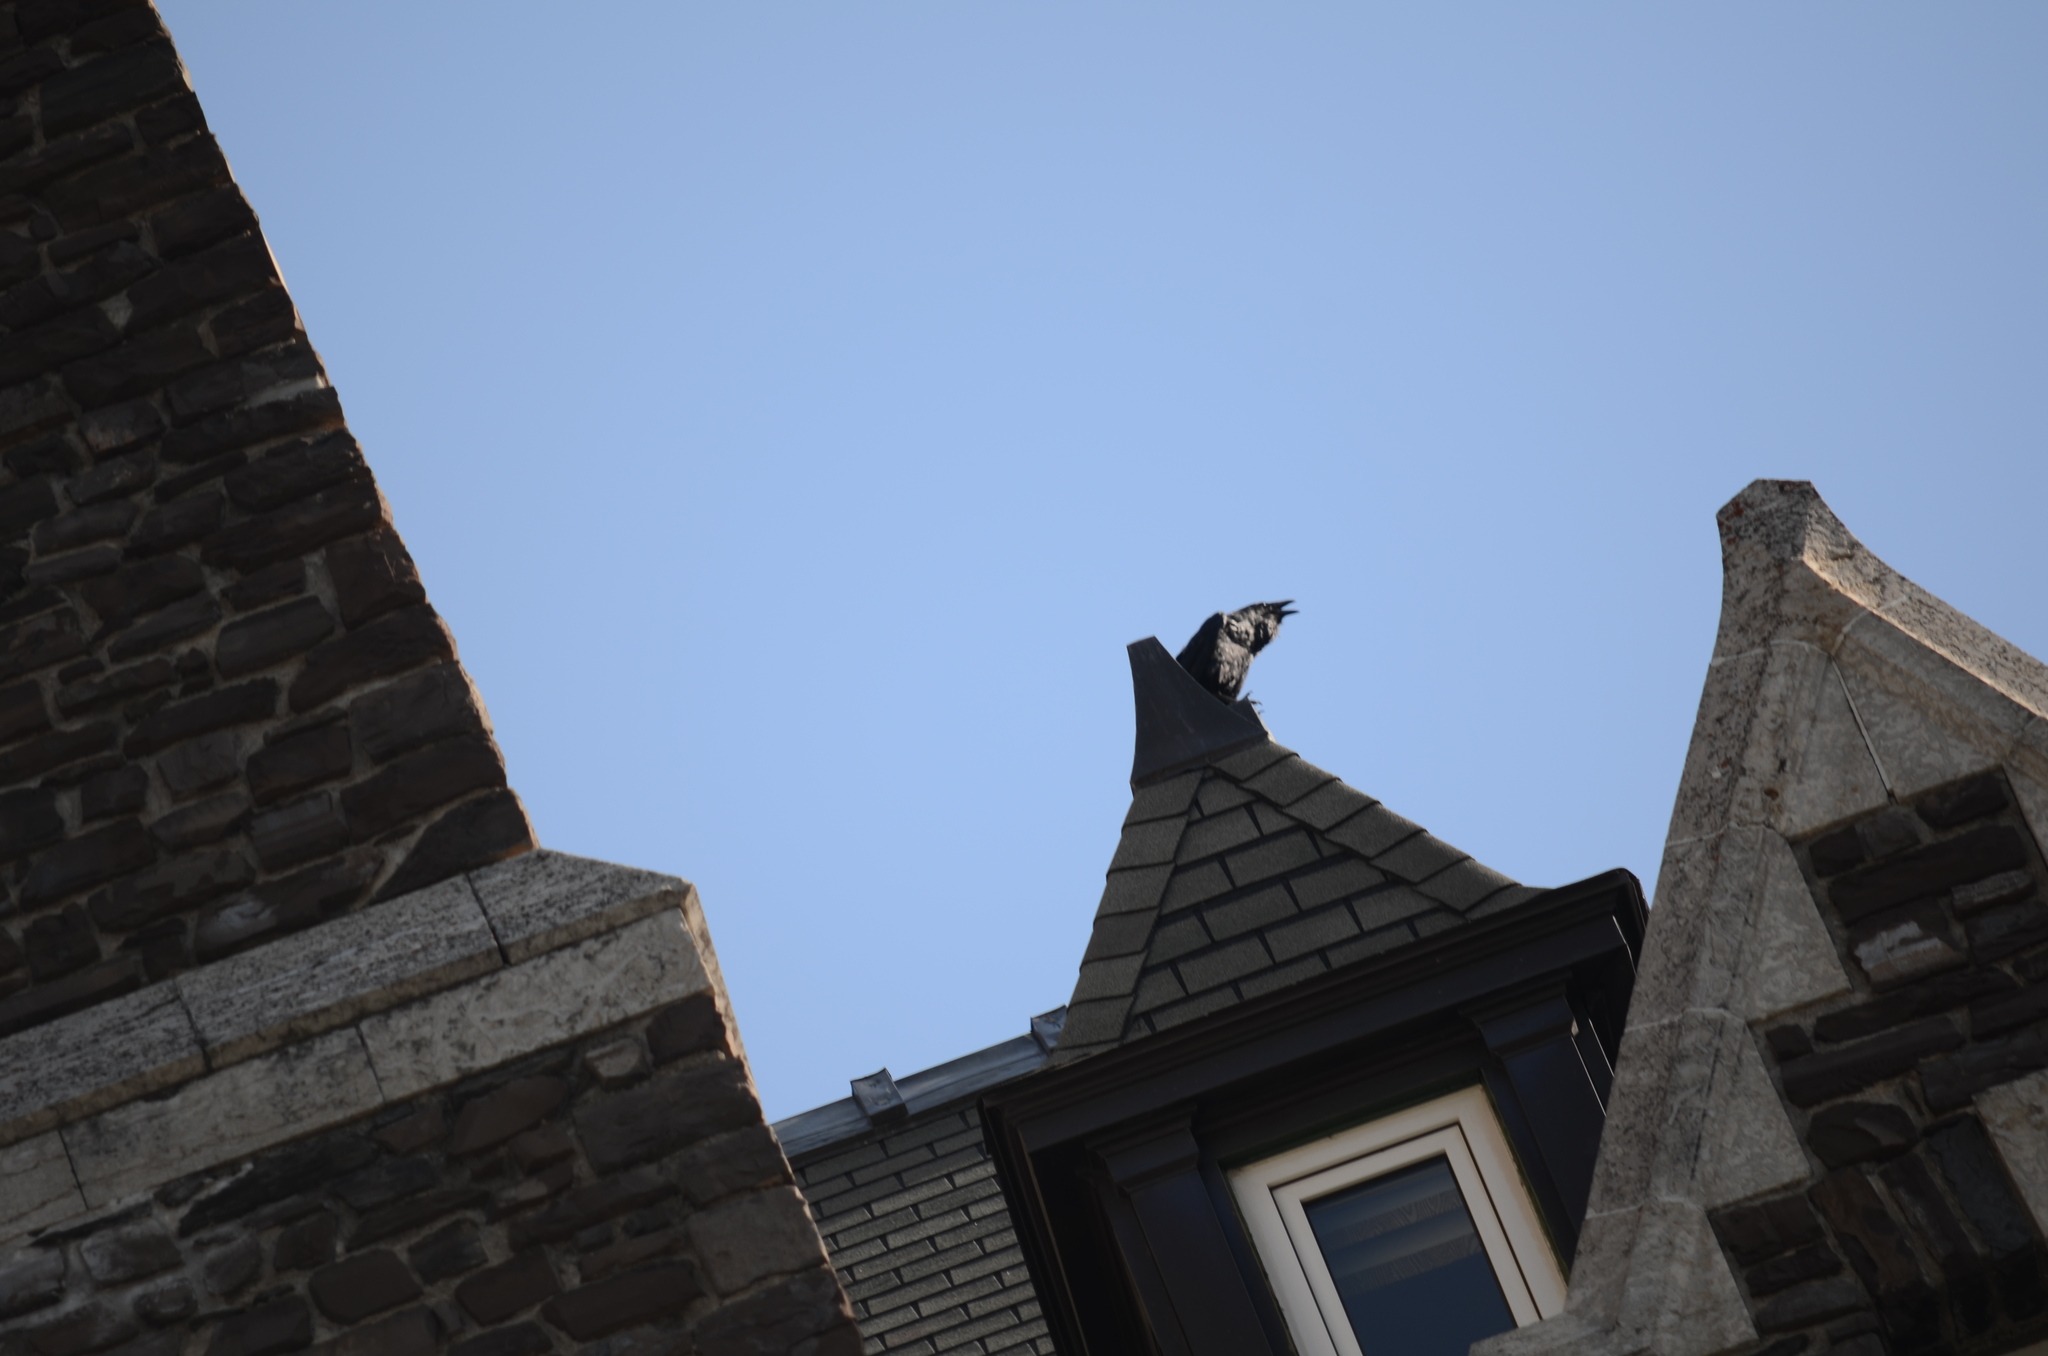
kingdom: Animalia
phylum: Chordata
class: Aves
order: Passeriformes
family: Corvidae
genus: Corvus
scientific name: Corvus corax
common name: Common raven
